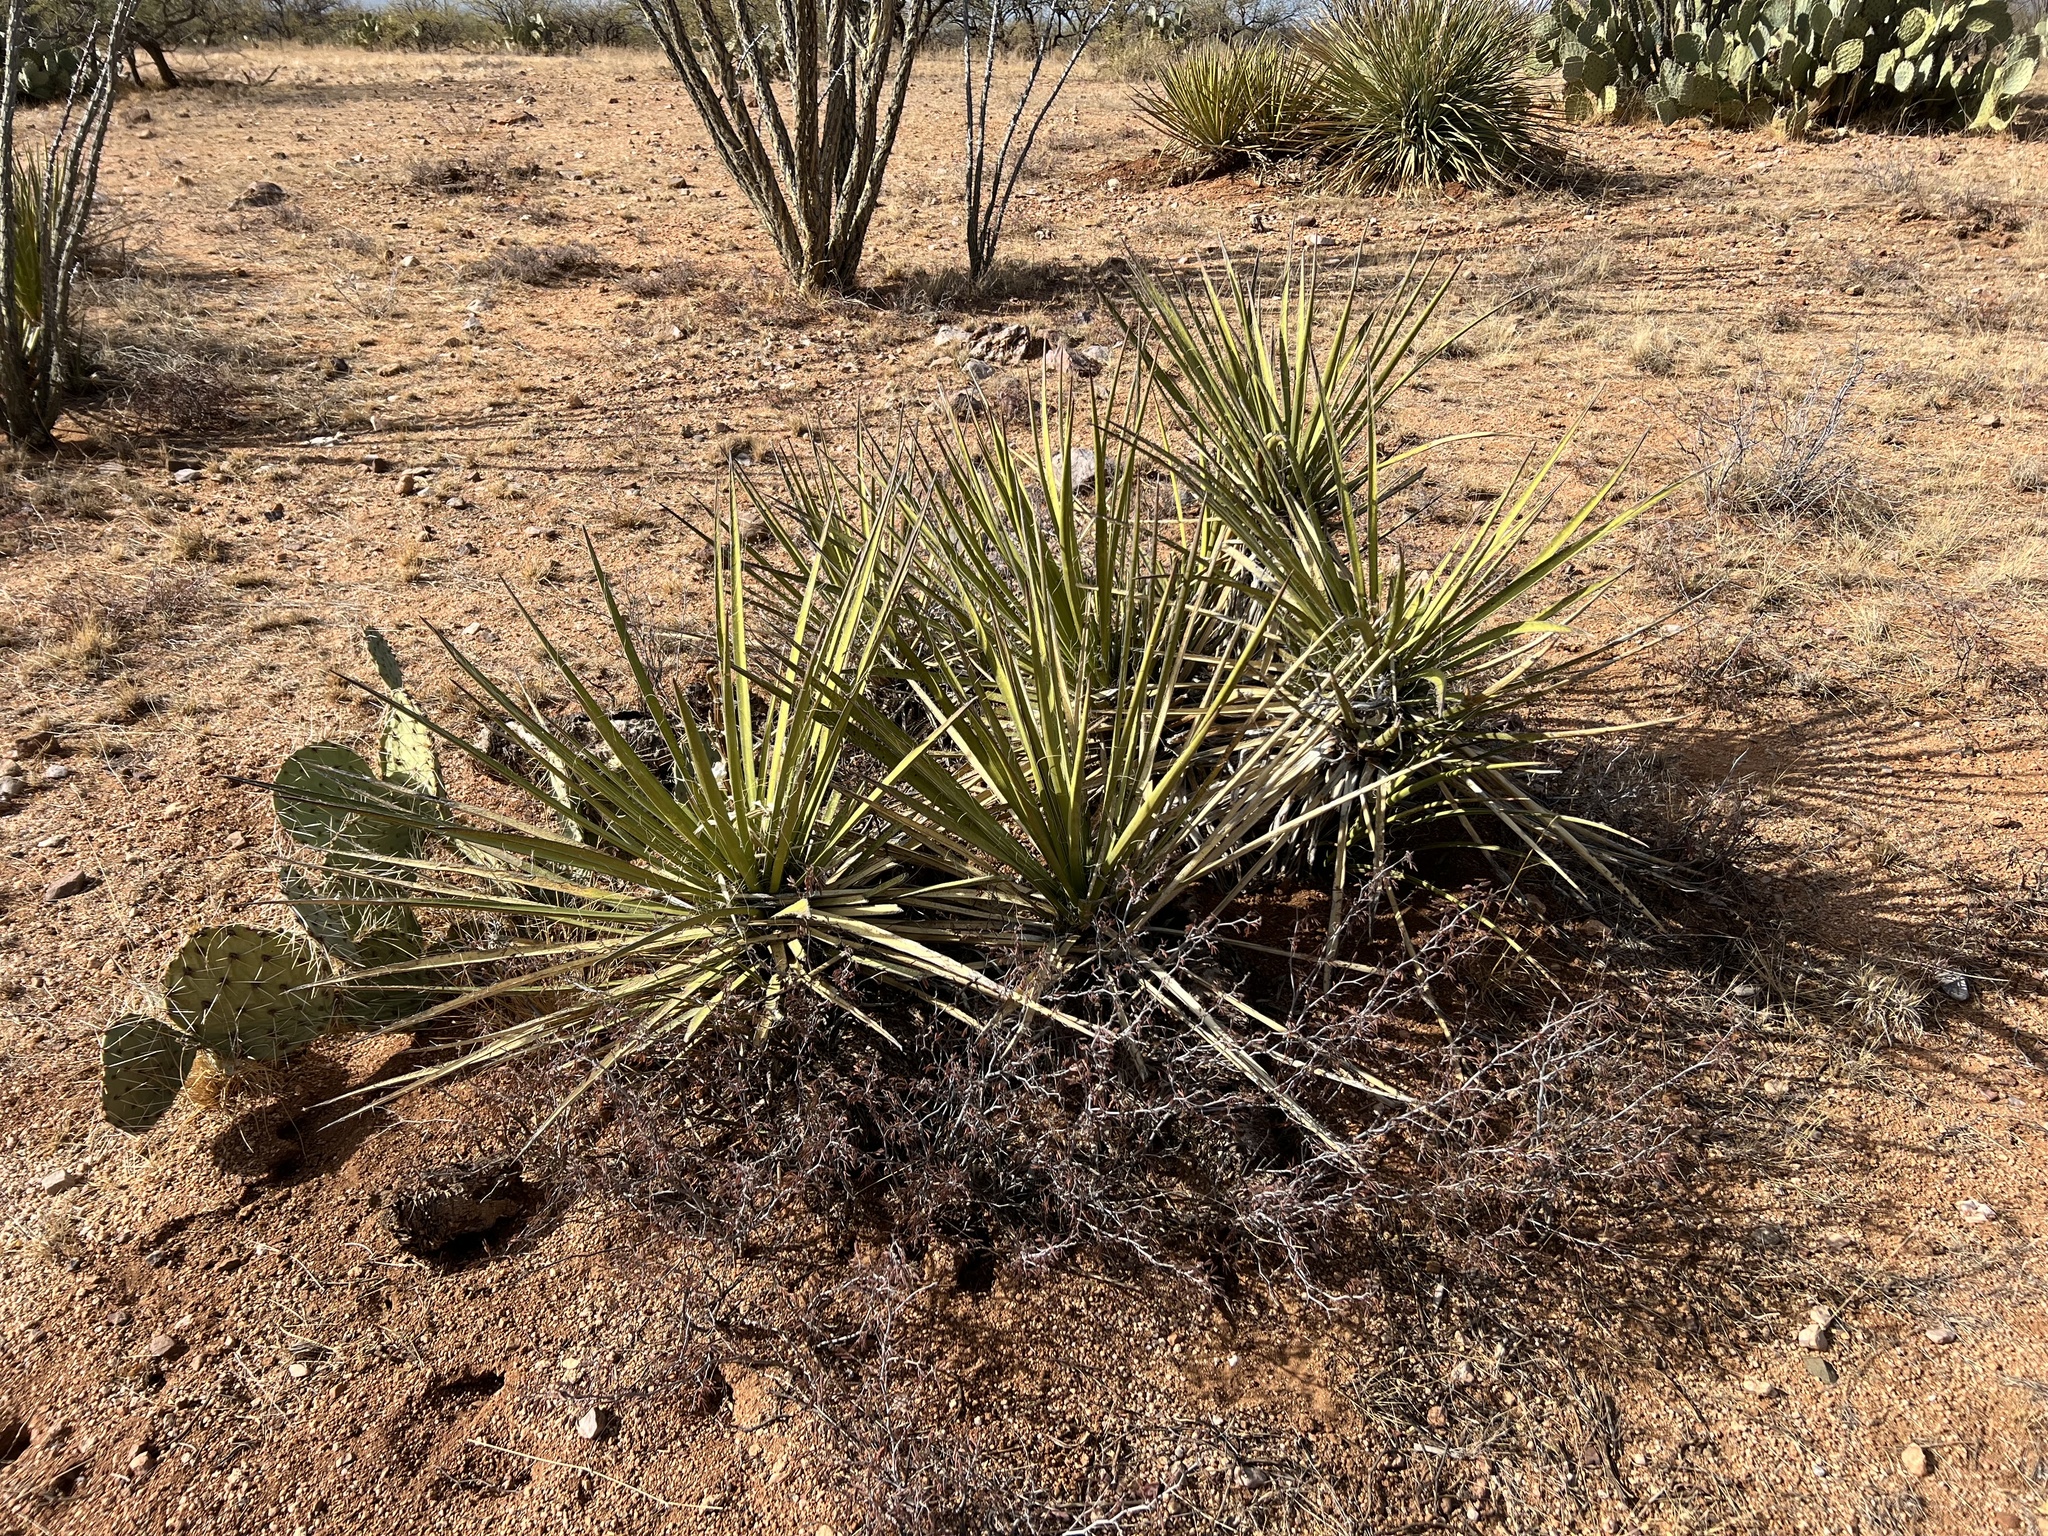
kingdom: Plantae
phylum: Tracheophyta
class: Liliopsida
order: Asparagales
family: Asparagaceae
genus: Yucca
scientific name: Yucca baccata
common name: Banana yucca
